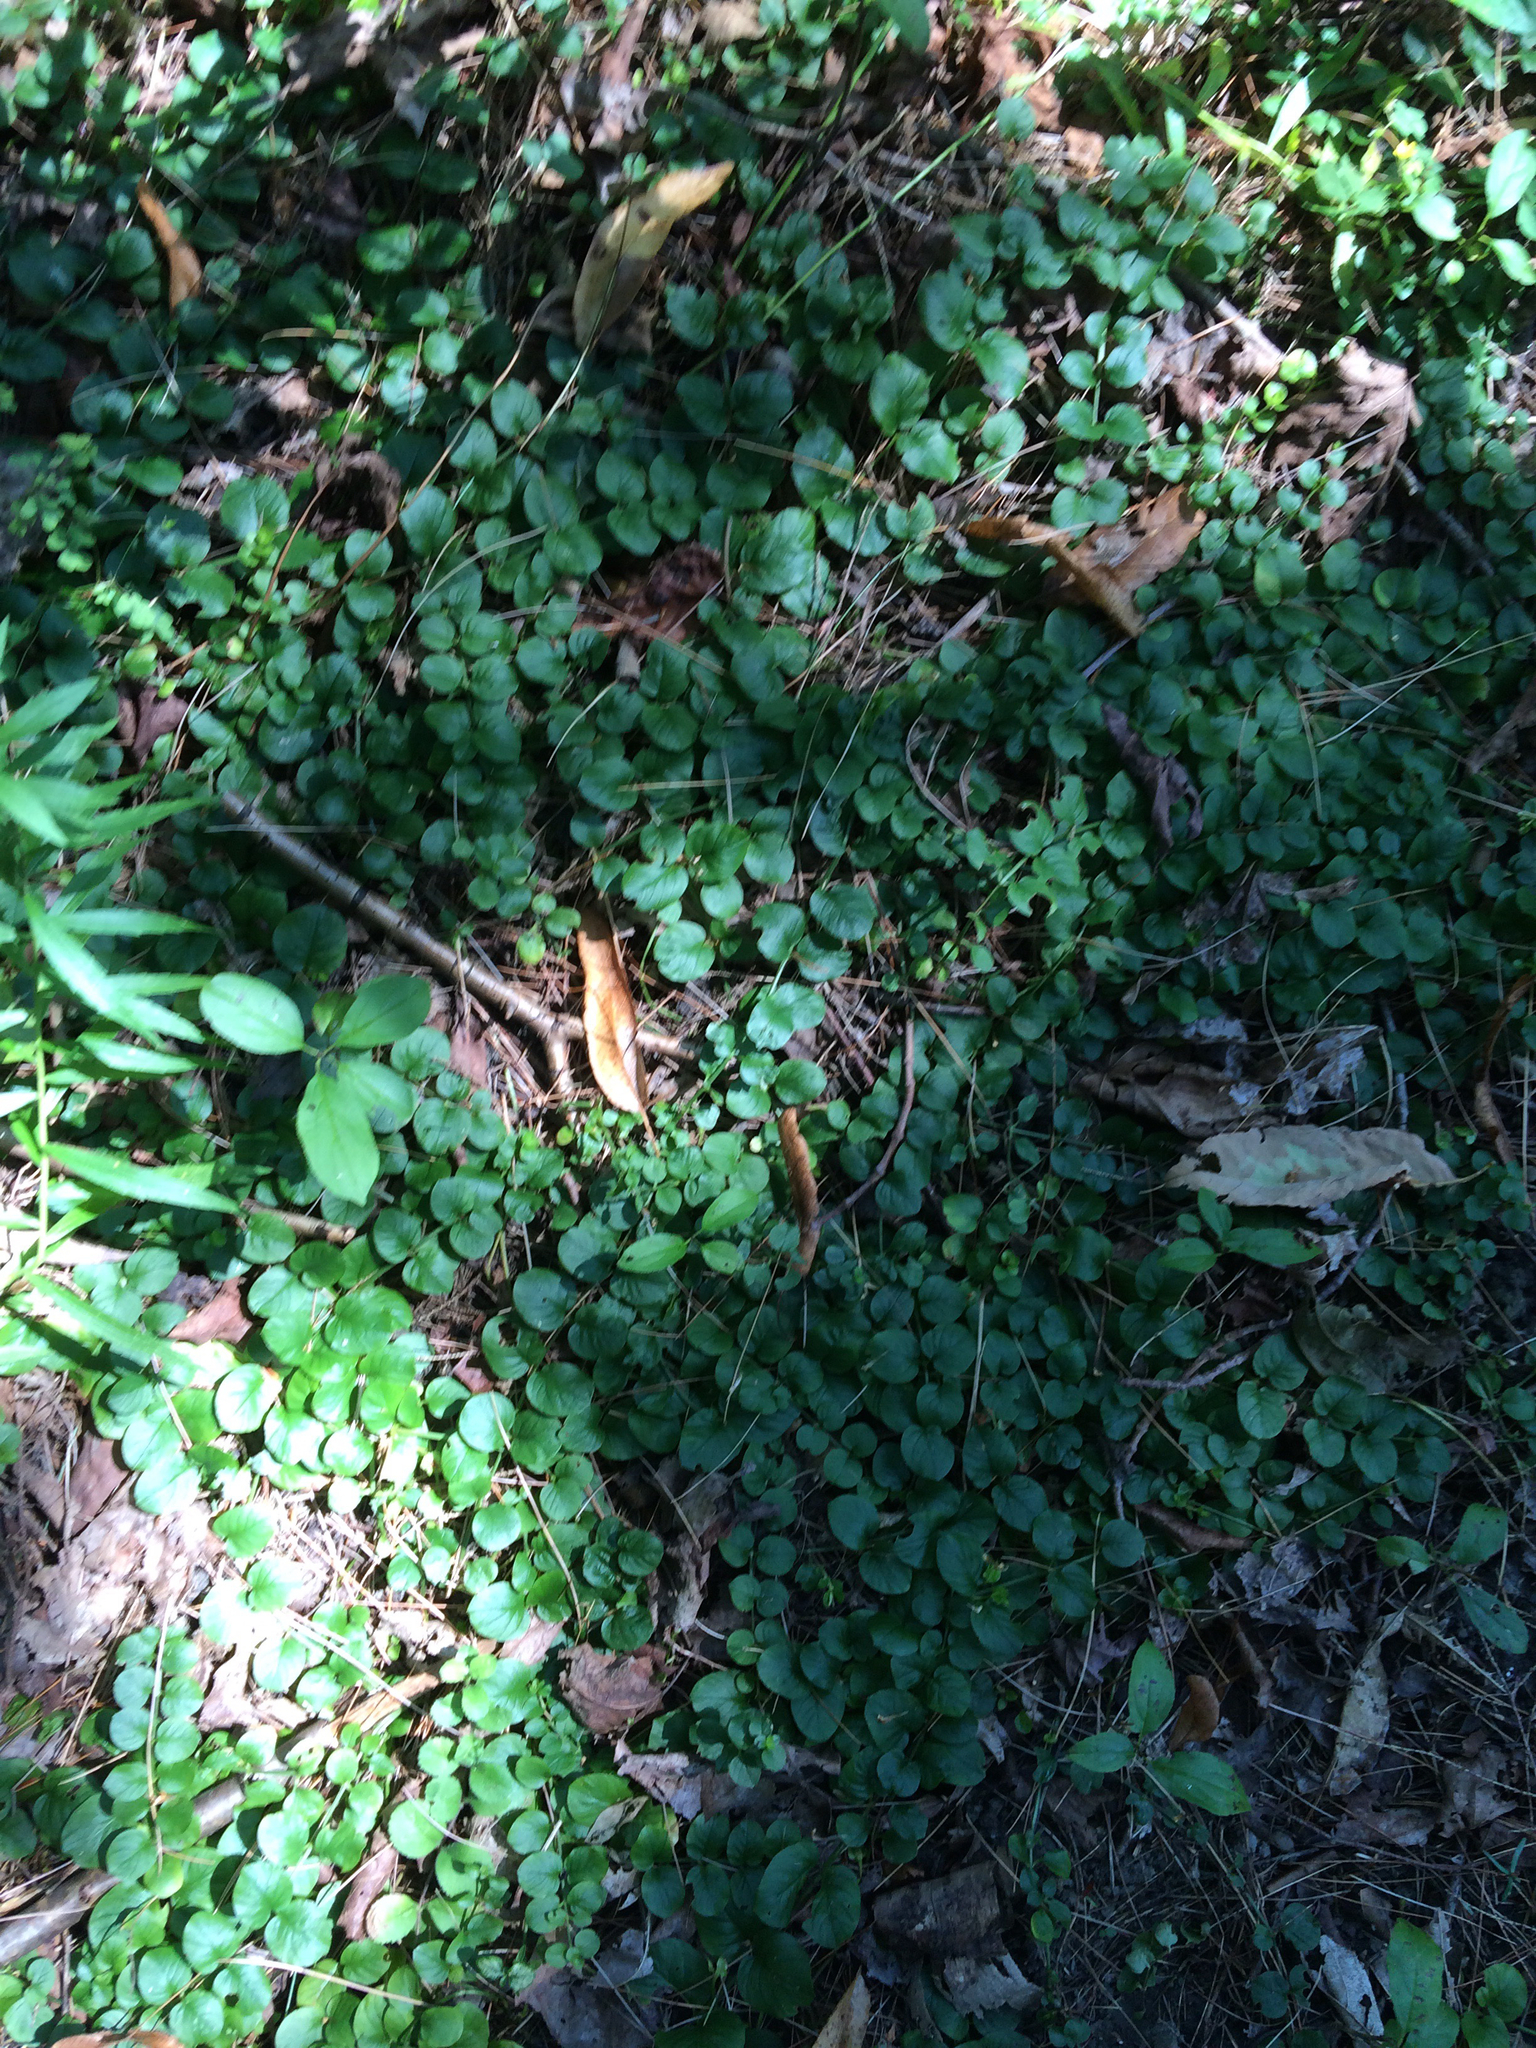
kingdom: Plantae
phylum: Tracheophyta
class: Magnoliopsida
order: Ericales
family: Primulaceae
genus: Lysimachia
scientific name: Lysimachia nummularia
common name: Moneywort
